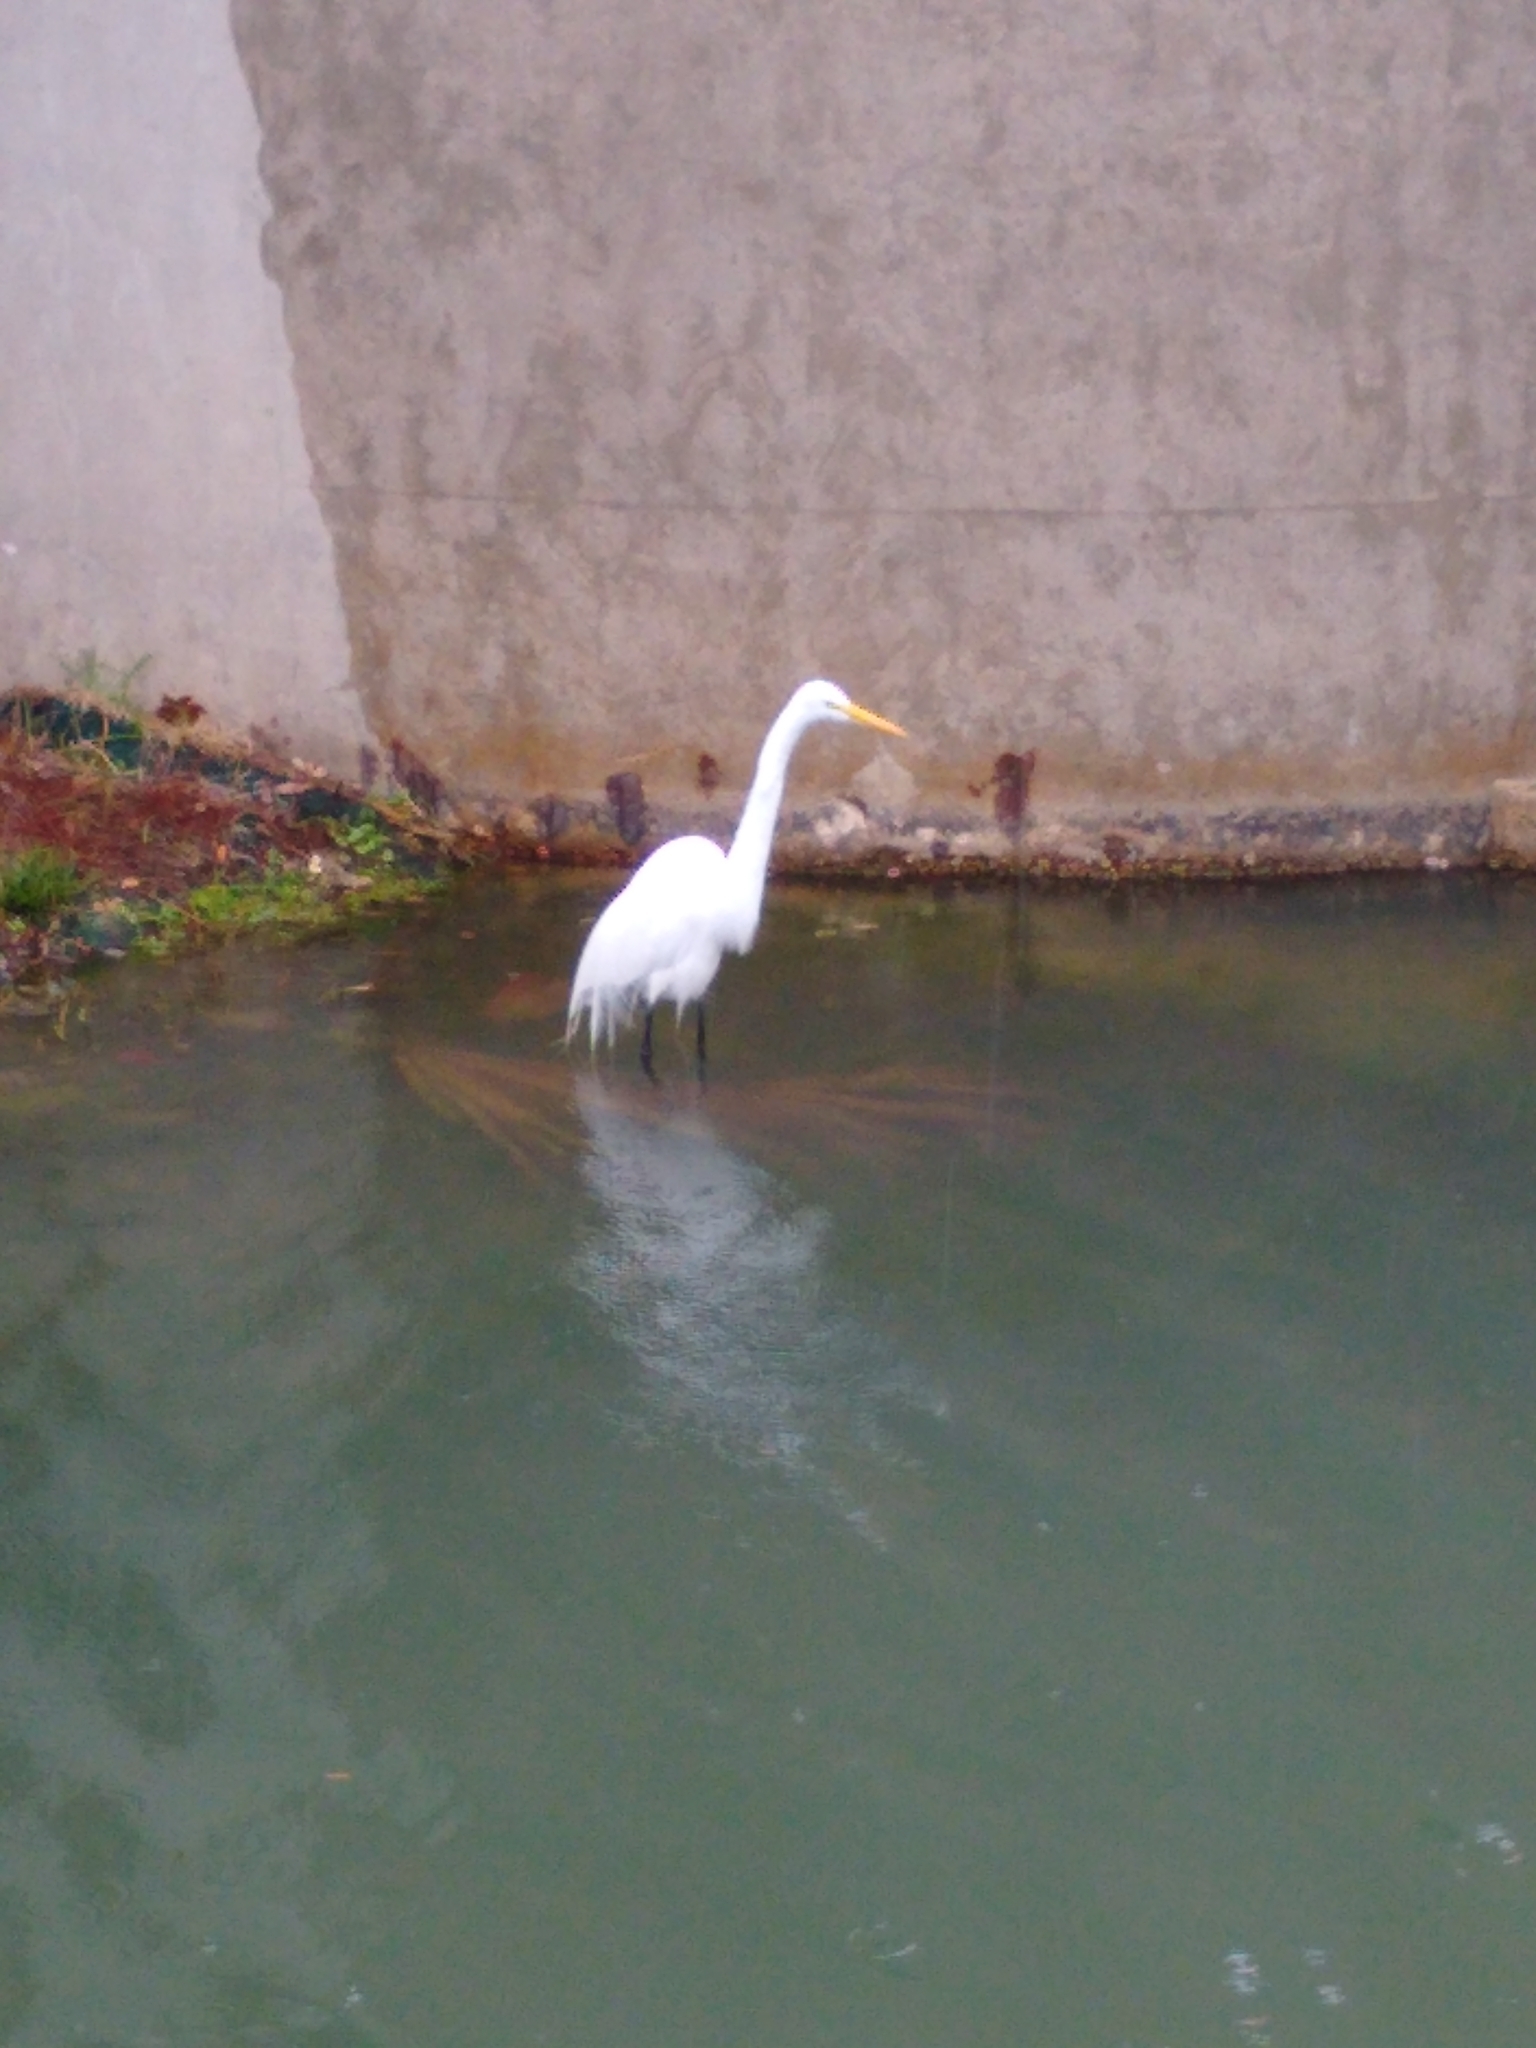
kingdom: Animalia
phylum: Chordata
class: Aves
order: Pelecaniformes
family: Ardeidae
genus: Ardea
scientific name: Ardea alba
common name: Great egret
